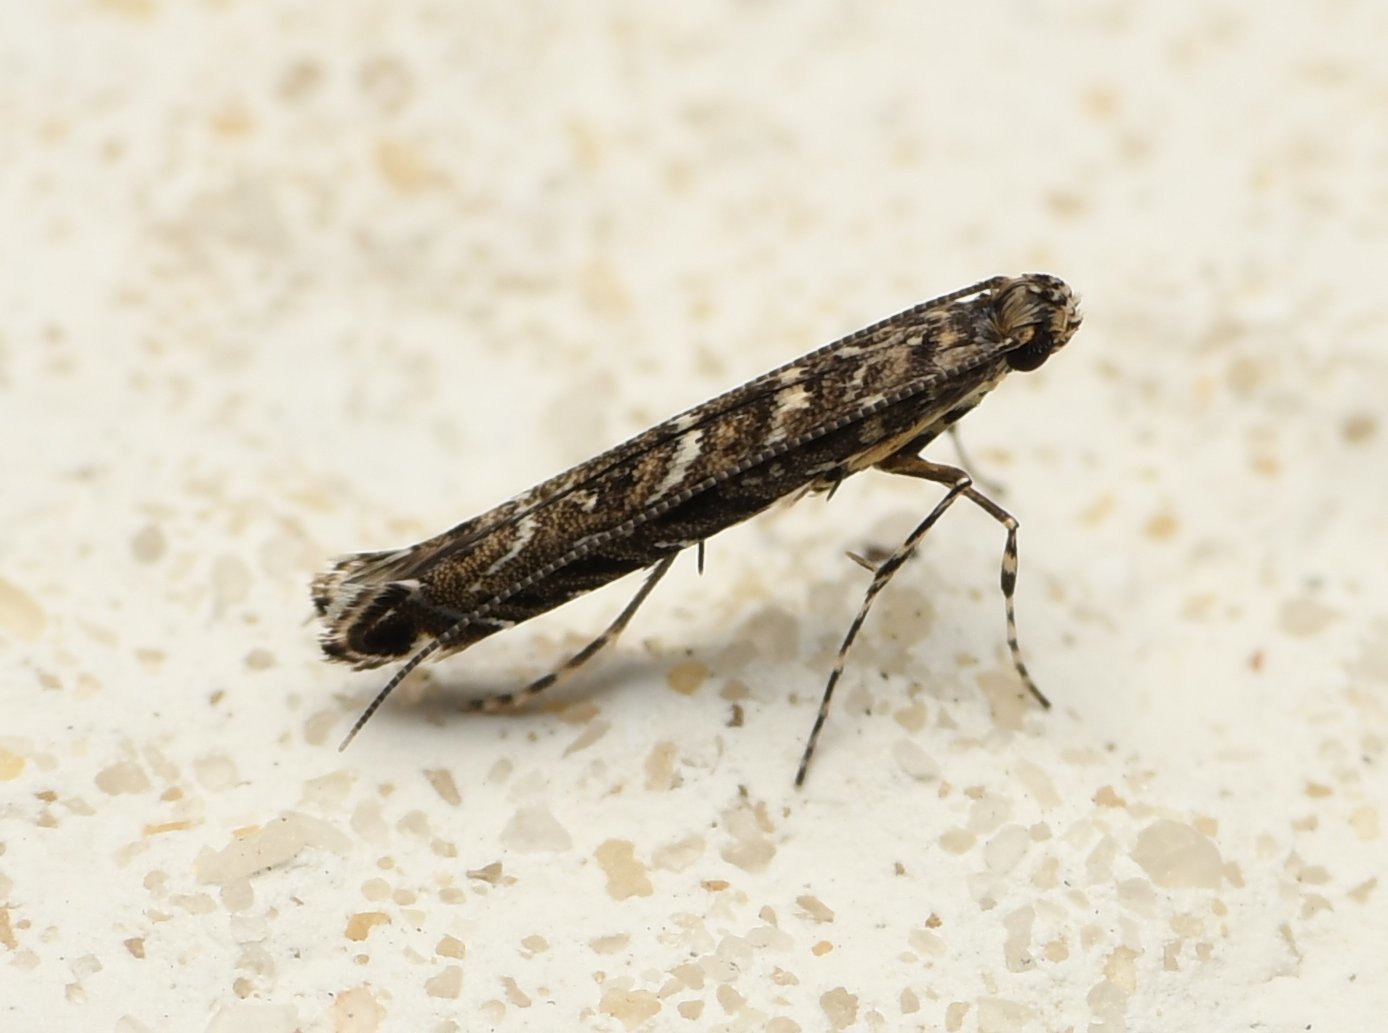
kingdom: Animalia
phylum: Arthropoda
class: Insecta
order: Lepidoptera
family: Gracillariidae
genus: Neurobathra
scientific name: Neurobathra strigifinitella
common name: Finite-channeled leafminer moth
